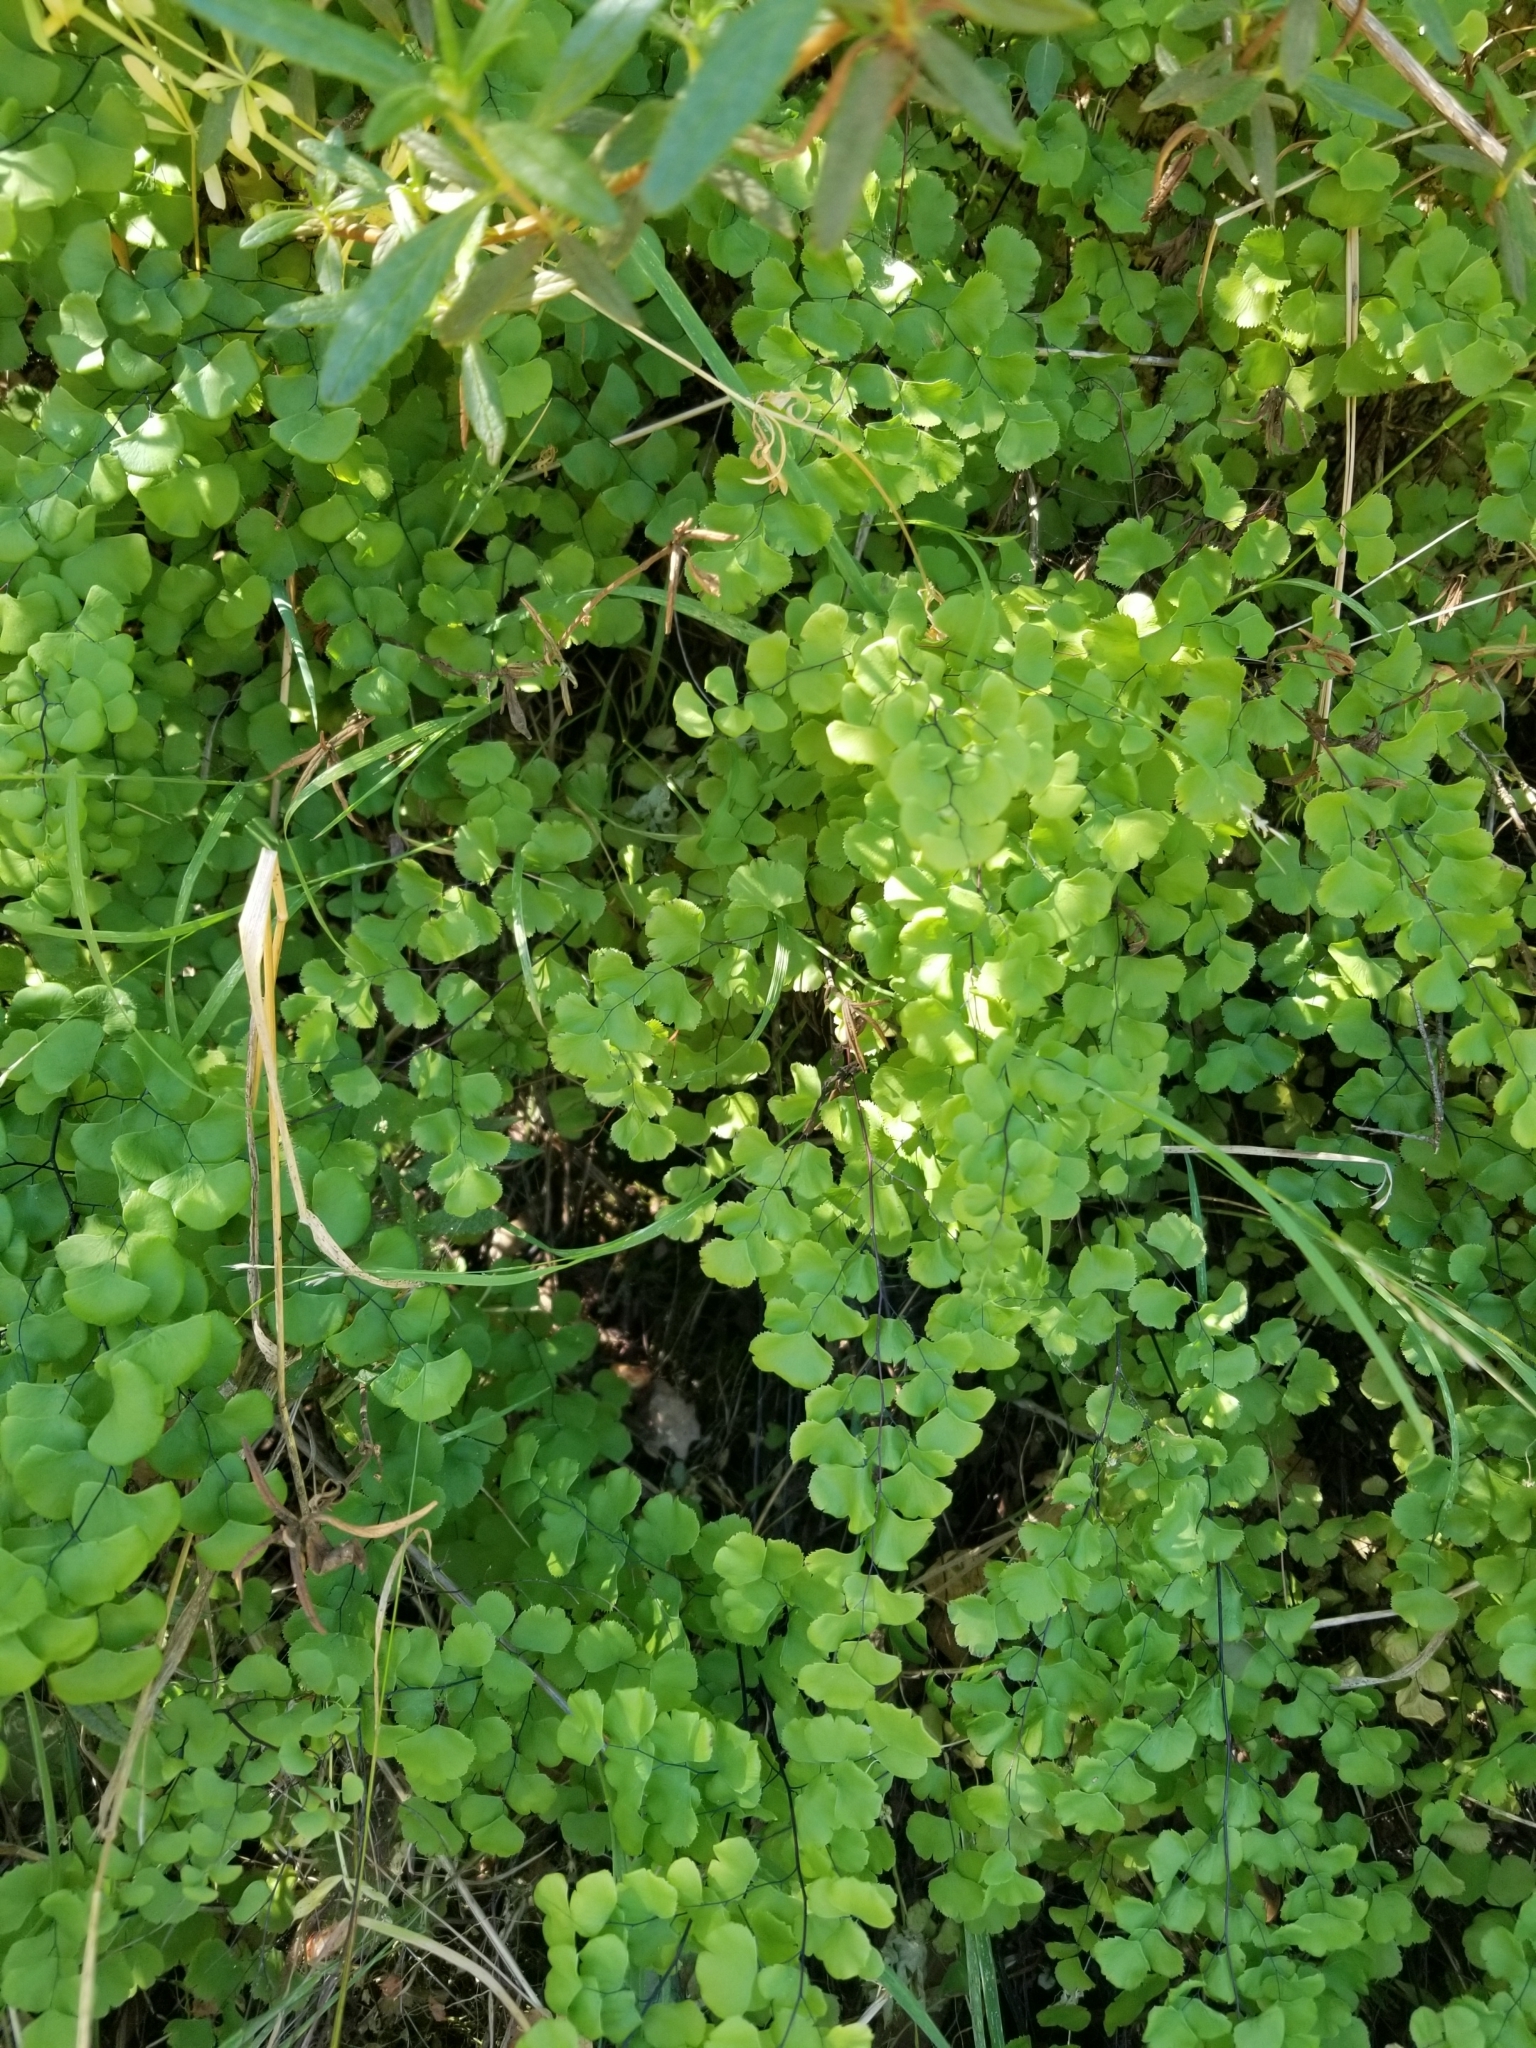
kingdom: Plantae
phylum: Tracheophyta
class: Polypodiopsida
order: Polypodiales
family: Pteridaceae
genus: Adiantum
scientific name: Adiantum jordanii
